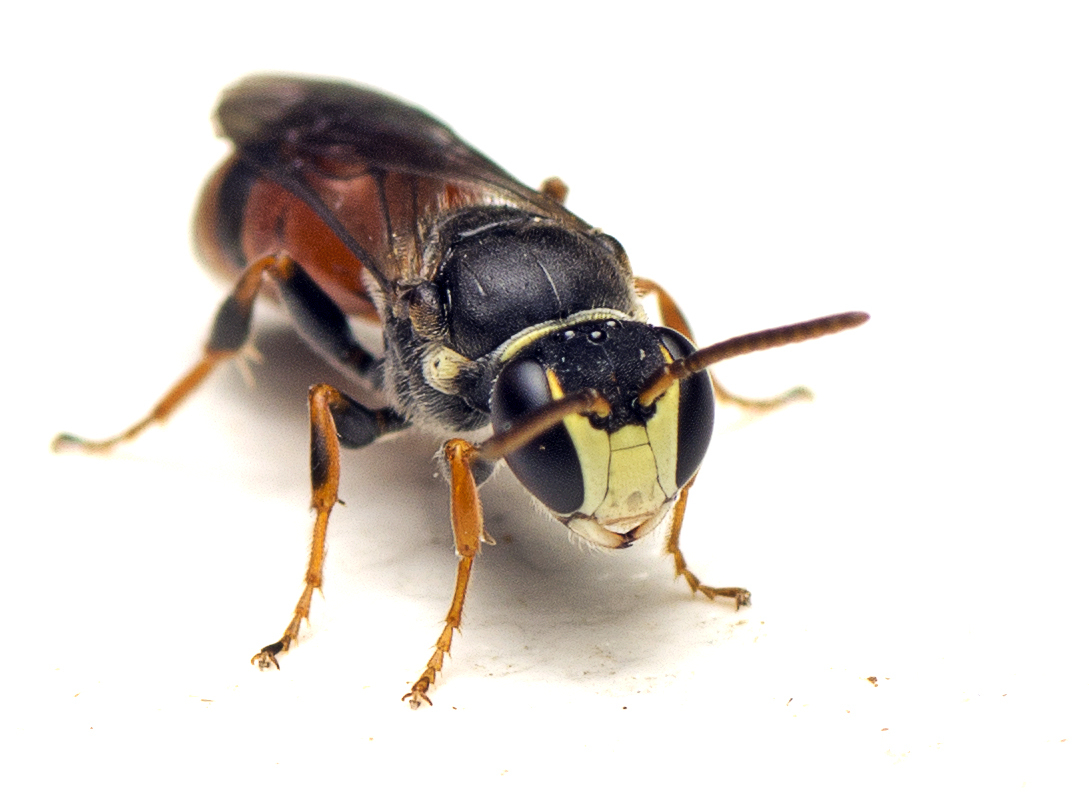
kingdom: Animalia
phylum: Arthropoda
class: Insecta
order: Hymenoptera
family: Colletidae
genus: Hylaeus
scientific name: Hylaeus littleri
